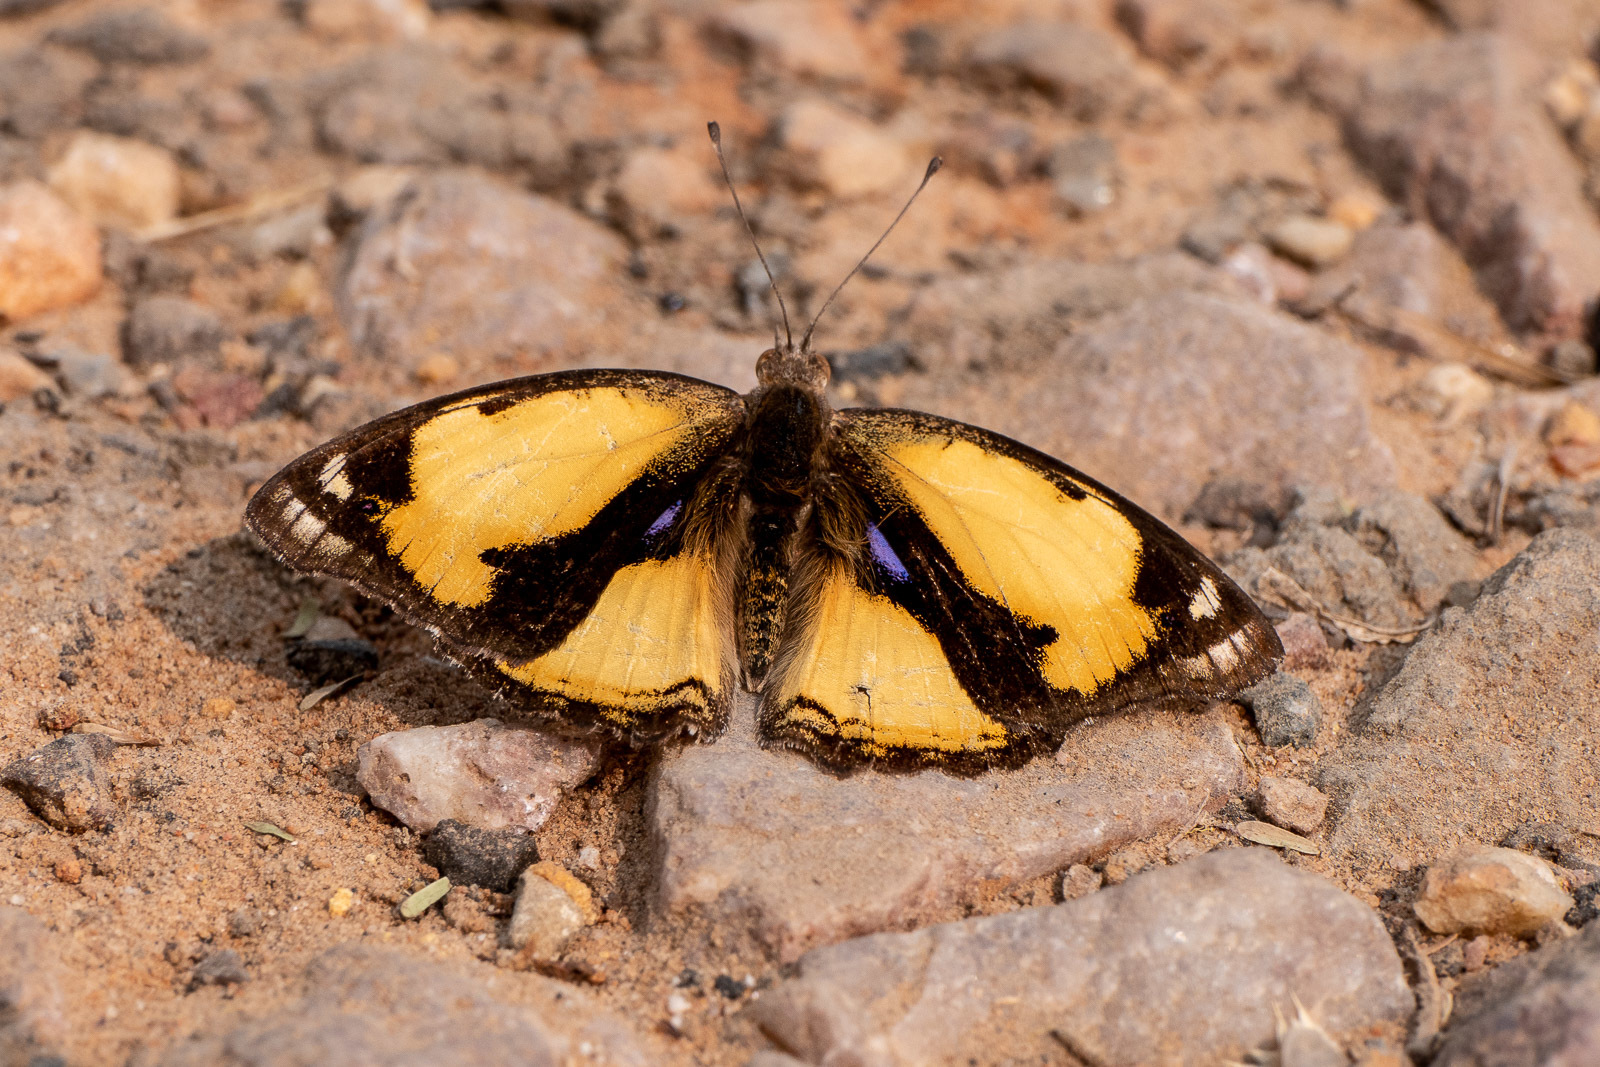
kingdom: Animalia
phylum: Arthropoda
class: Insecta
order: Lepidoptera
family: Nymphalidae
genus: Junonia
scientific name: Junonia hierta
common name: Yellow pansy
